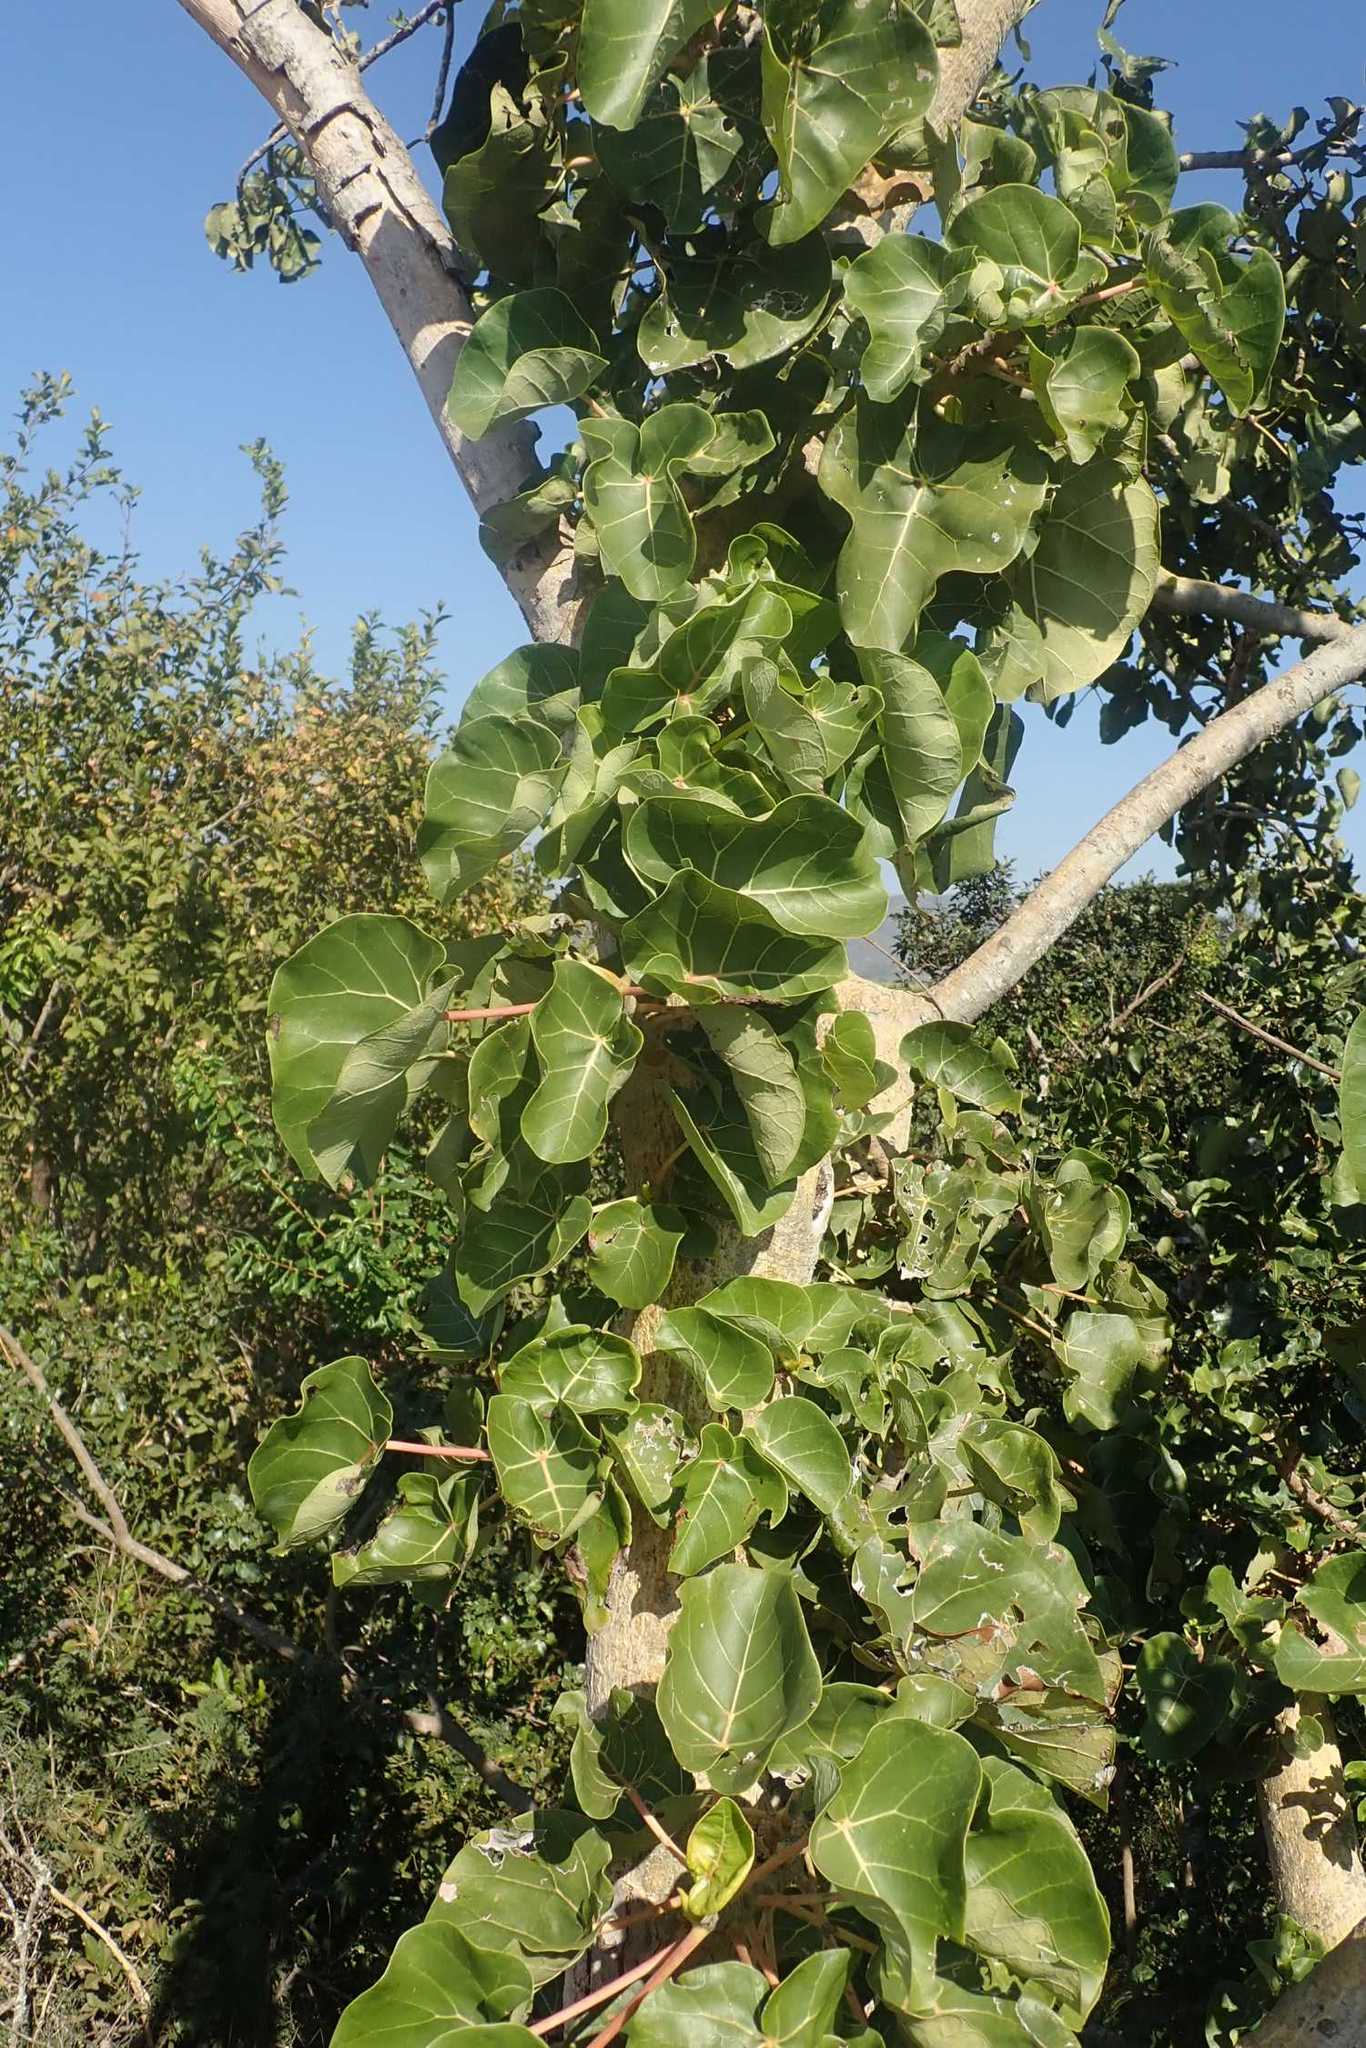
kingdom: Plantae
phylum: Tracheophyta
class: Magnoliopsida
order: Rosales
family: Moraceae
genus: Ficus
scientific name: Ficus abutilifolia
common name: Large-leaved rock fig
